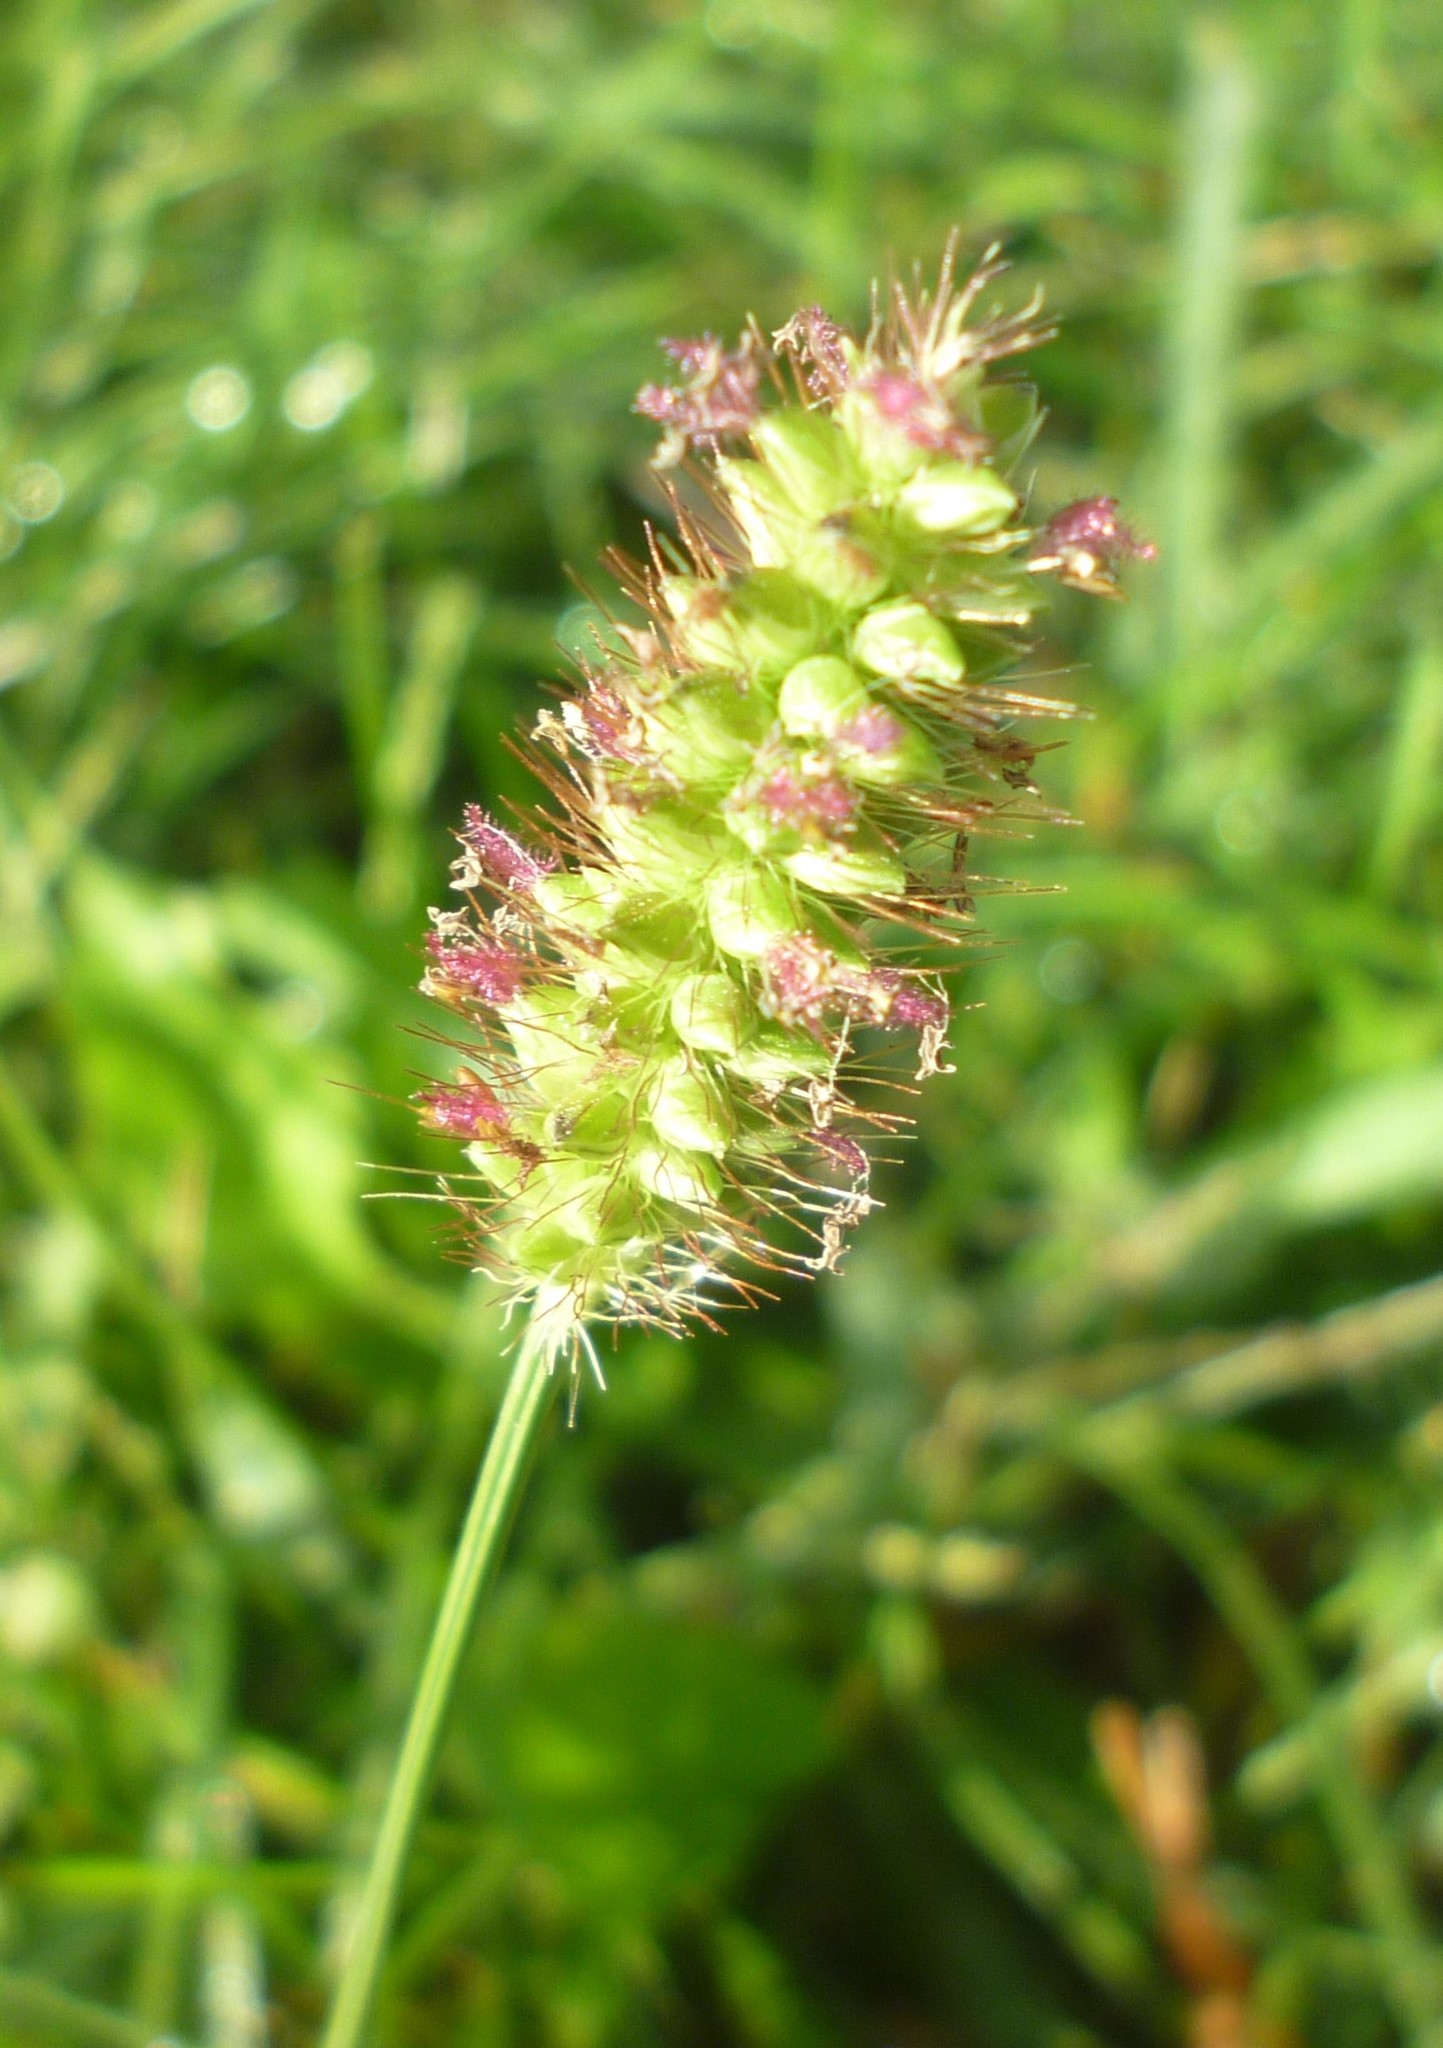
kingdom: Plantae
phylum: Tracheophyta
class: Liliopsida
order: Poales
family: Poaceae
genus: Setaria
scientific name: Setaria pumila
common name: Yellow bristle-grass
